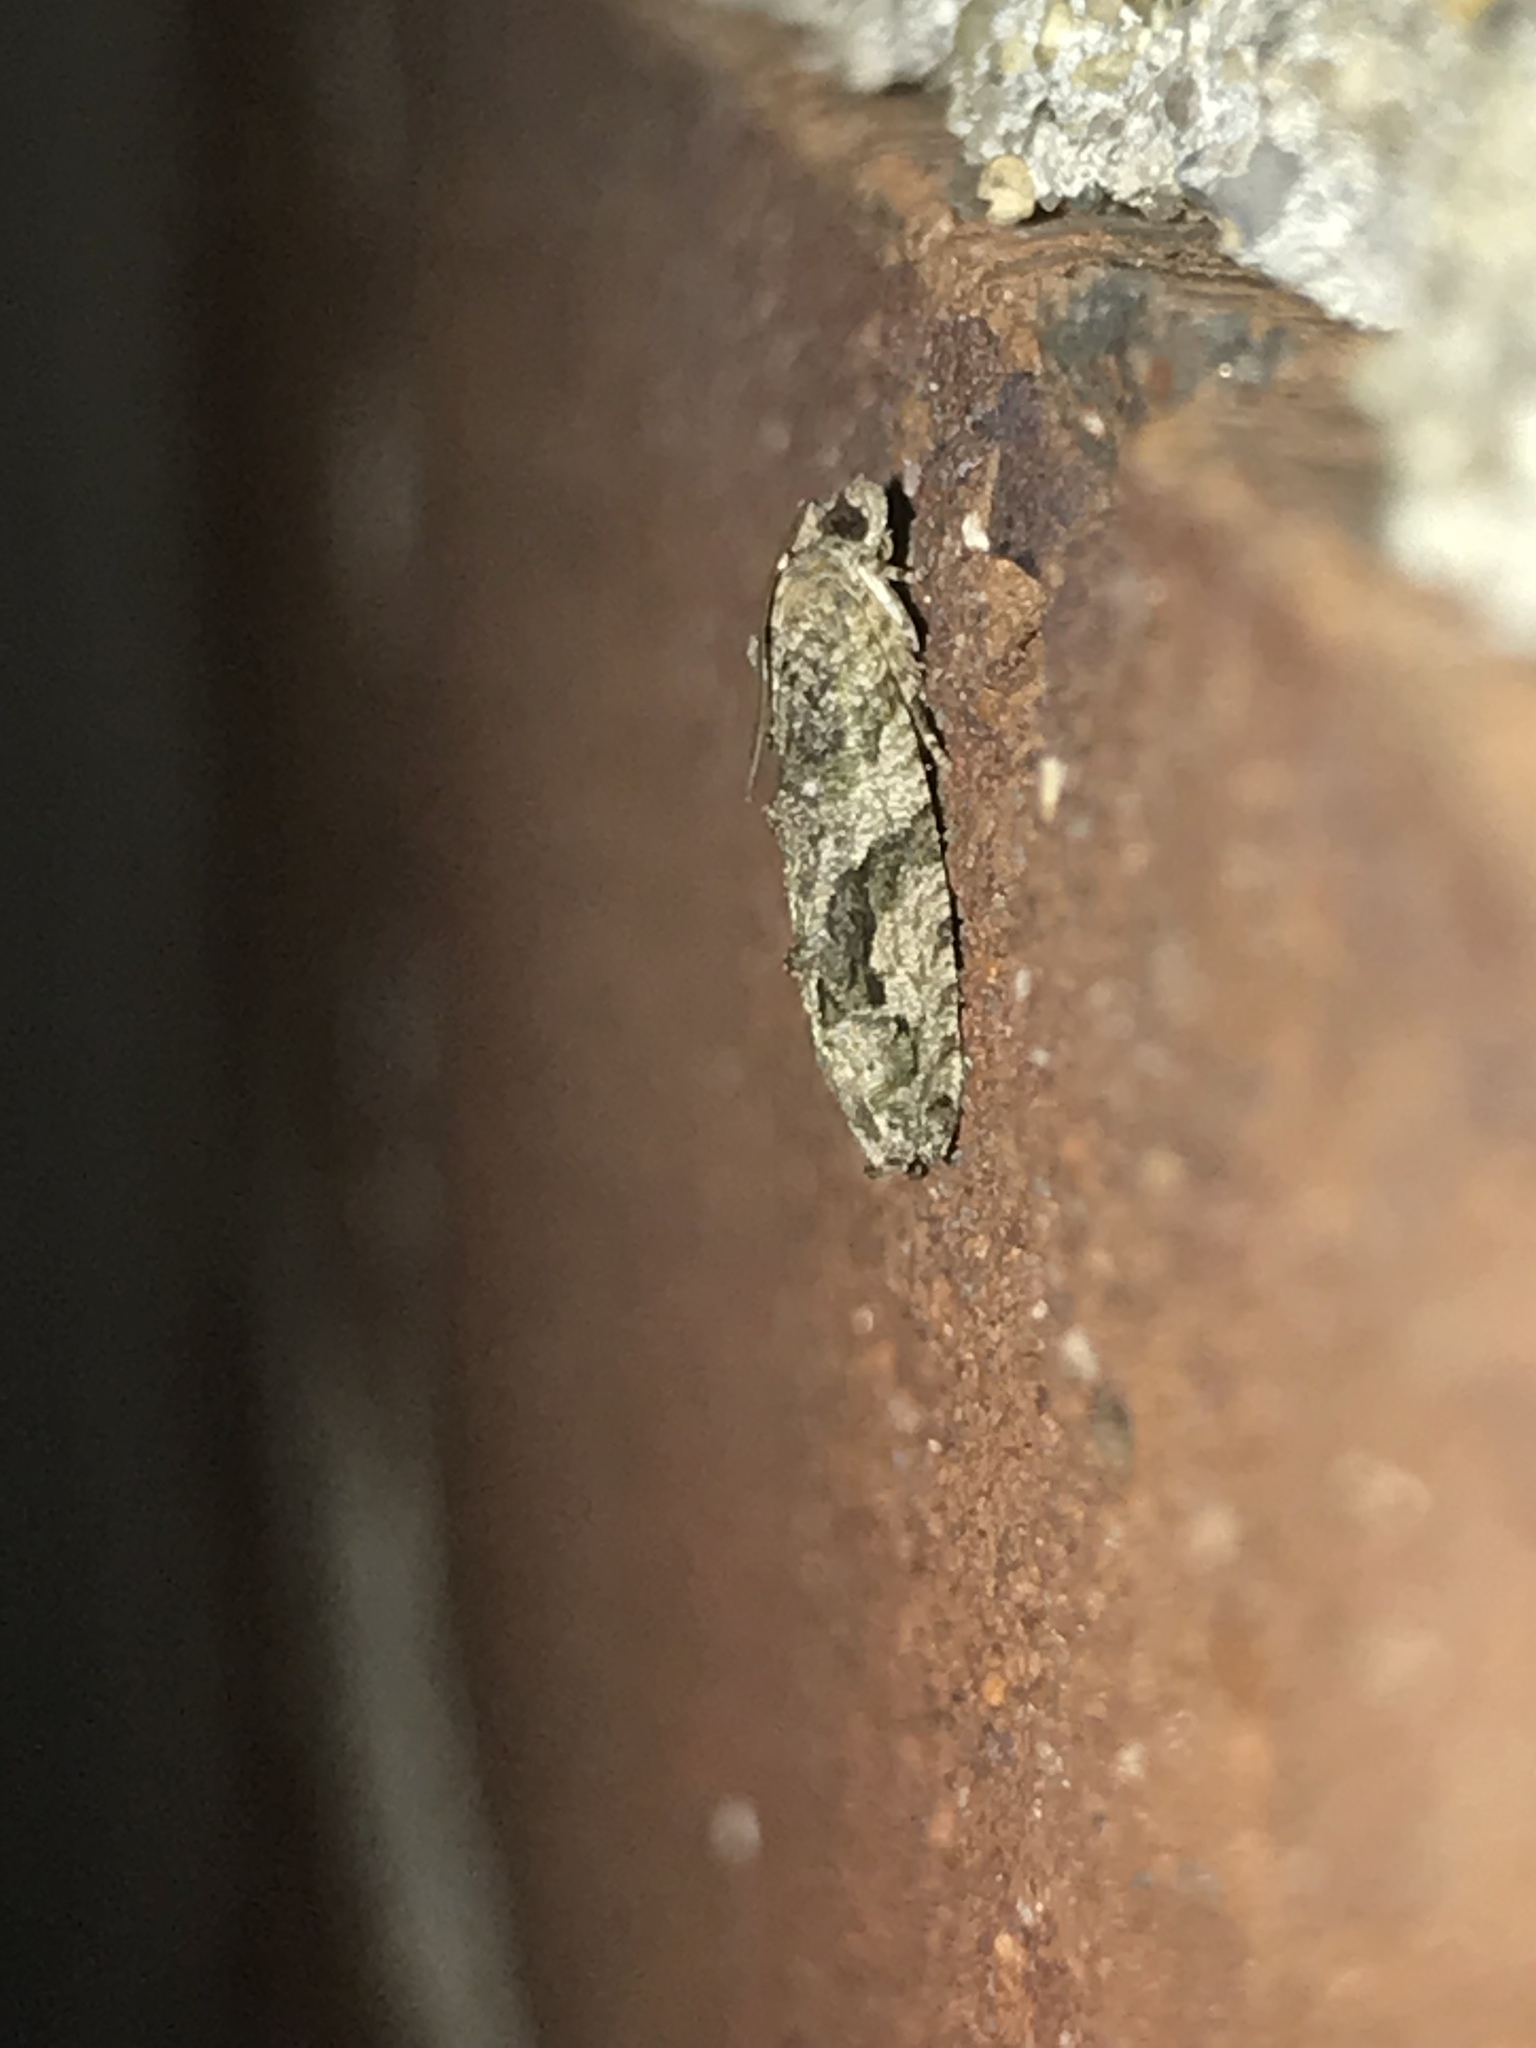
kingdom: Animalia
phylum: Arthropoda
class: Insecta
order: Lepidoptera
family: Tortricidae
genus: Proteoteras
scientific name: Proteoteras aesculana
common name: Maple twig borer moth
